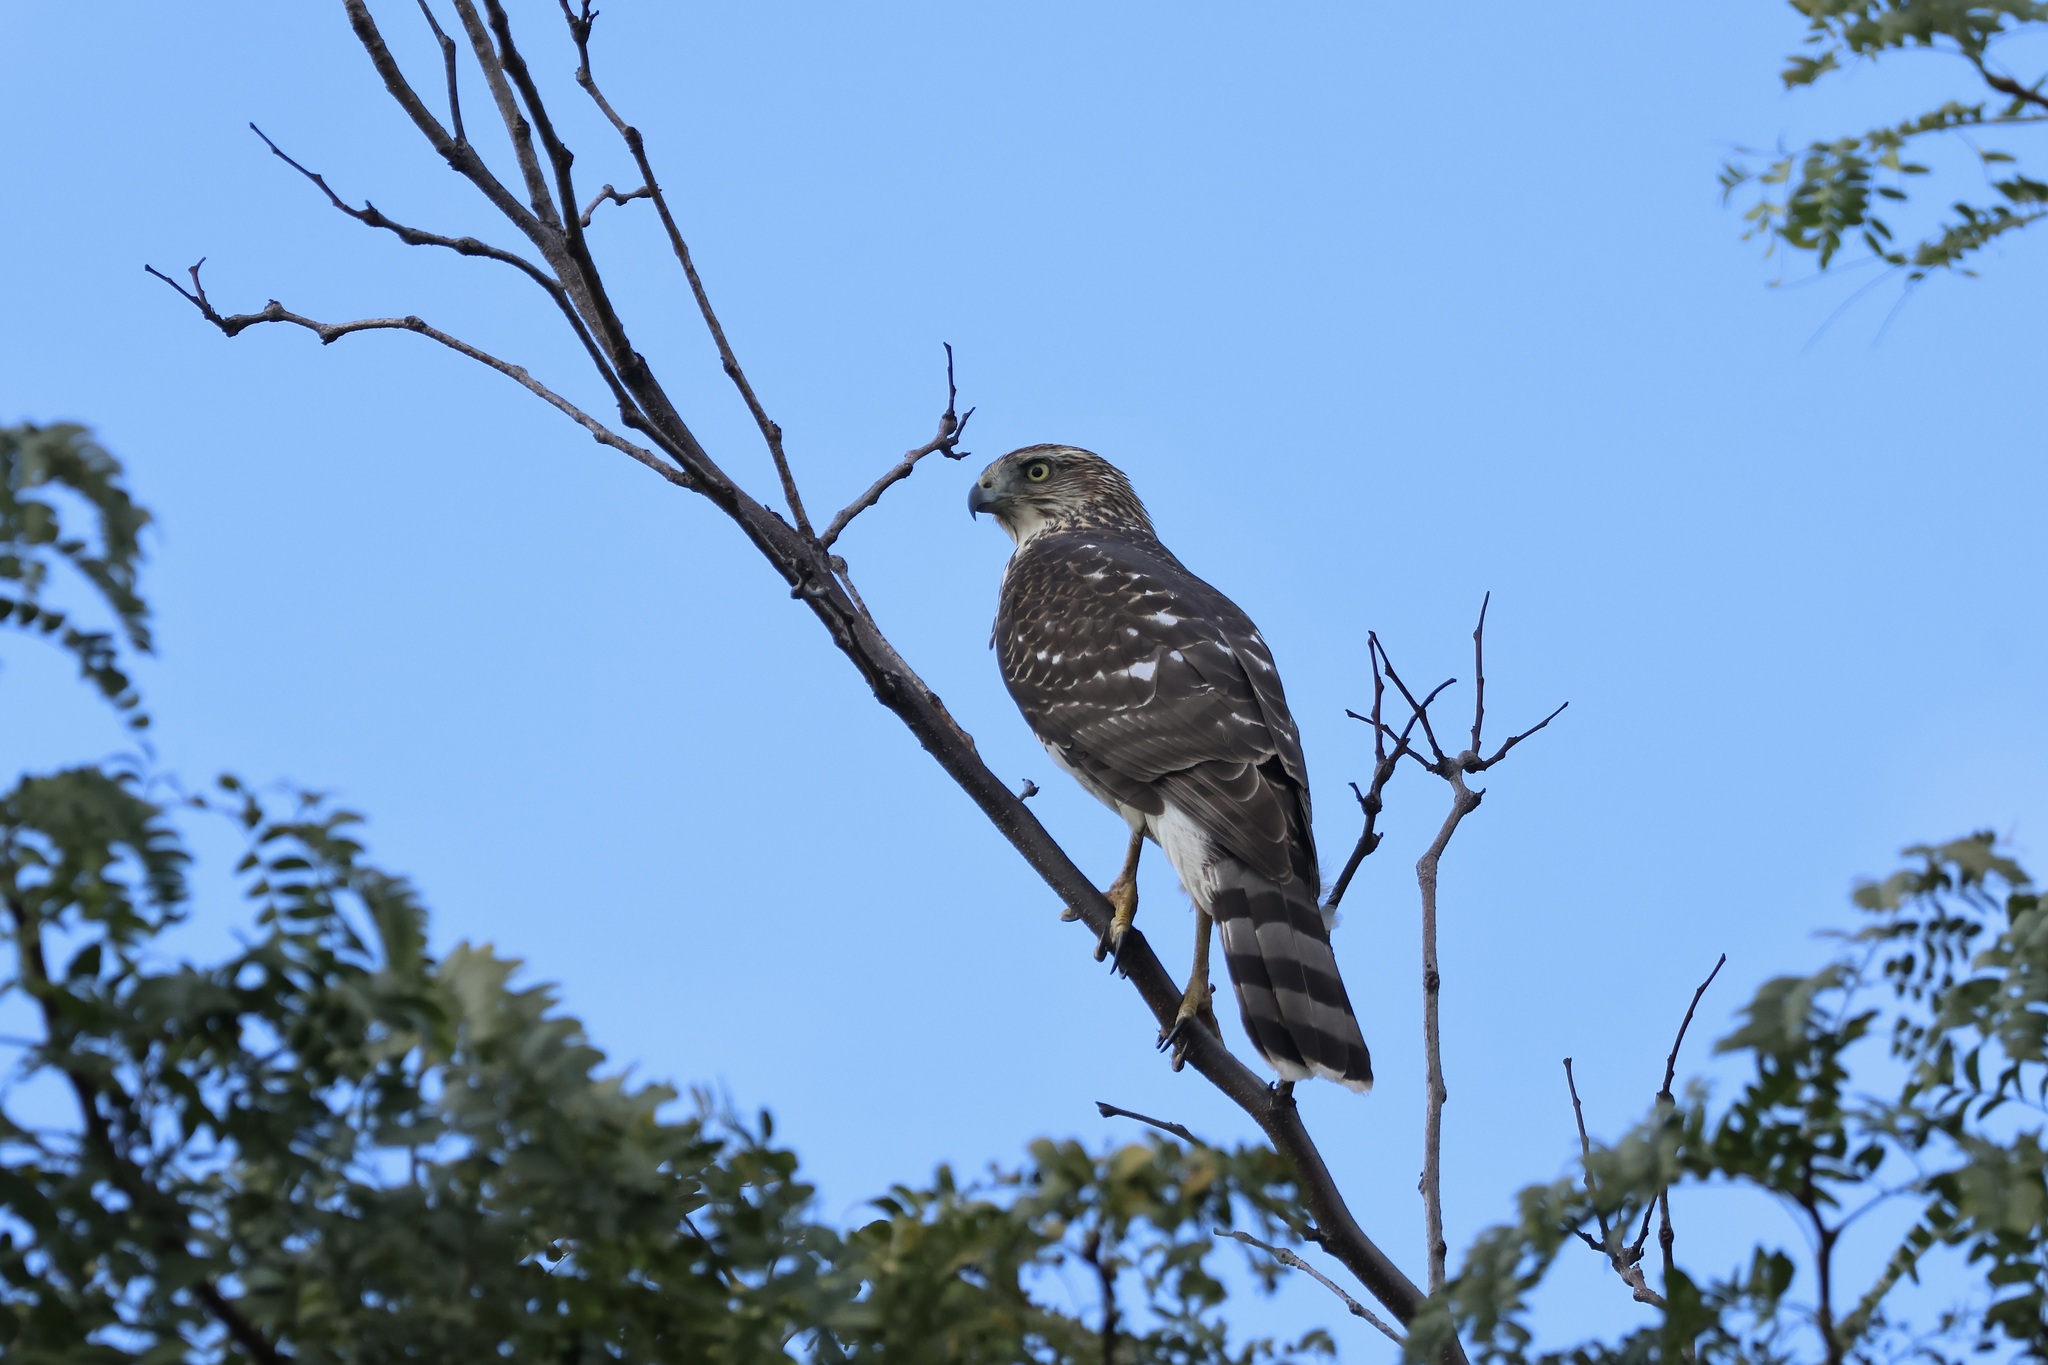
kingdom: Animalia
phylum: Chordata
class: Aves
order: Accipitriformes
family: Accipitridae
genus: Accipiter
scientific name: Accipiter cooperii
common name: Cooper's hawk
